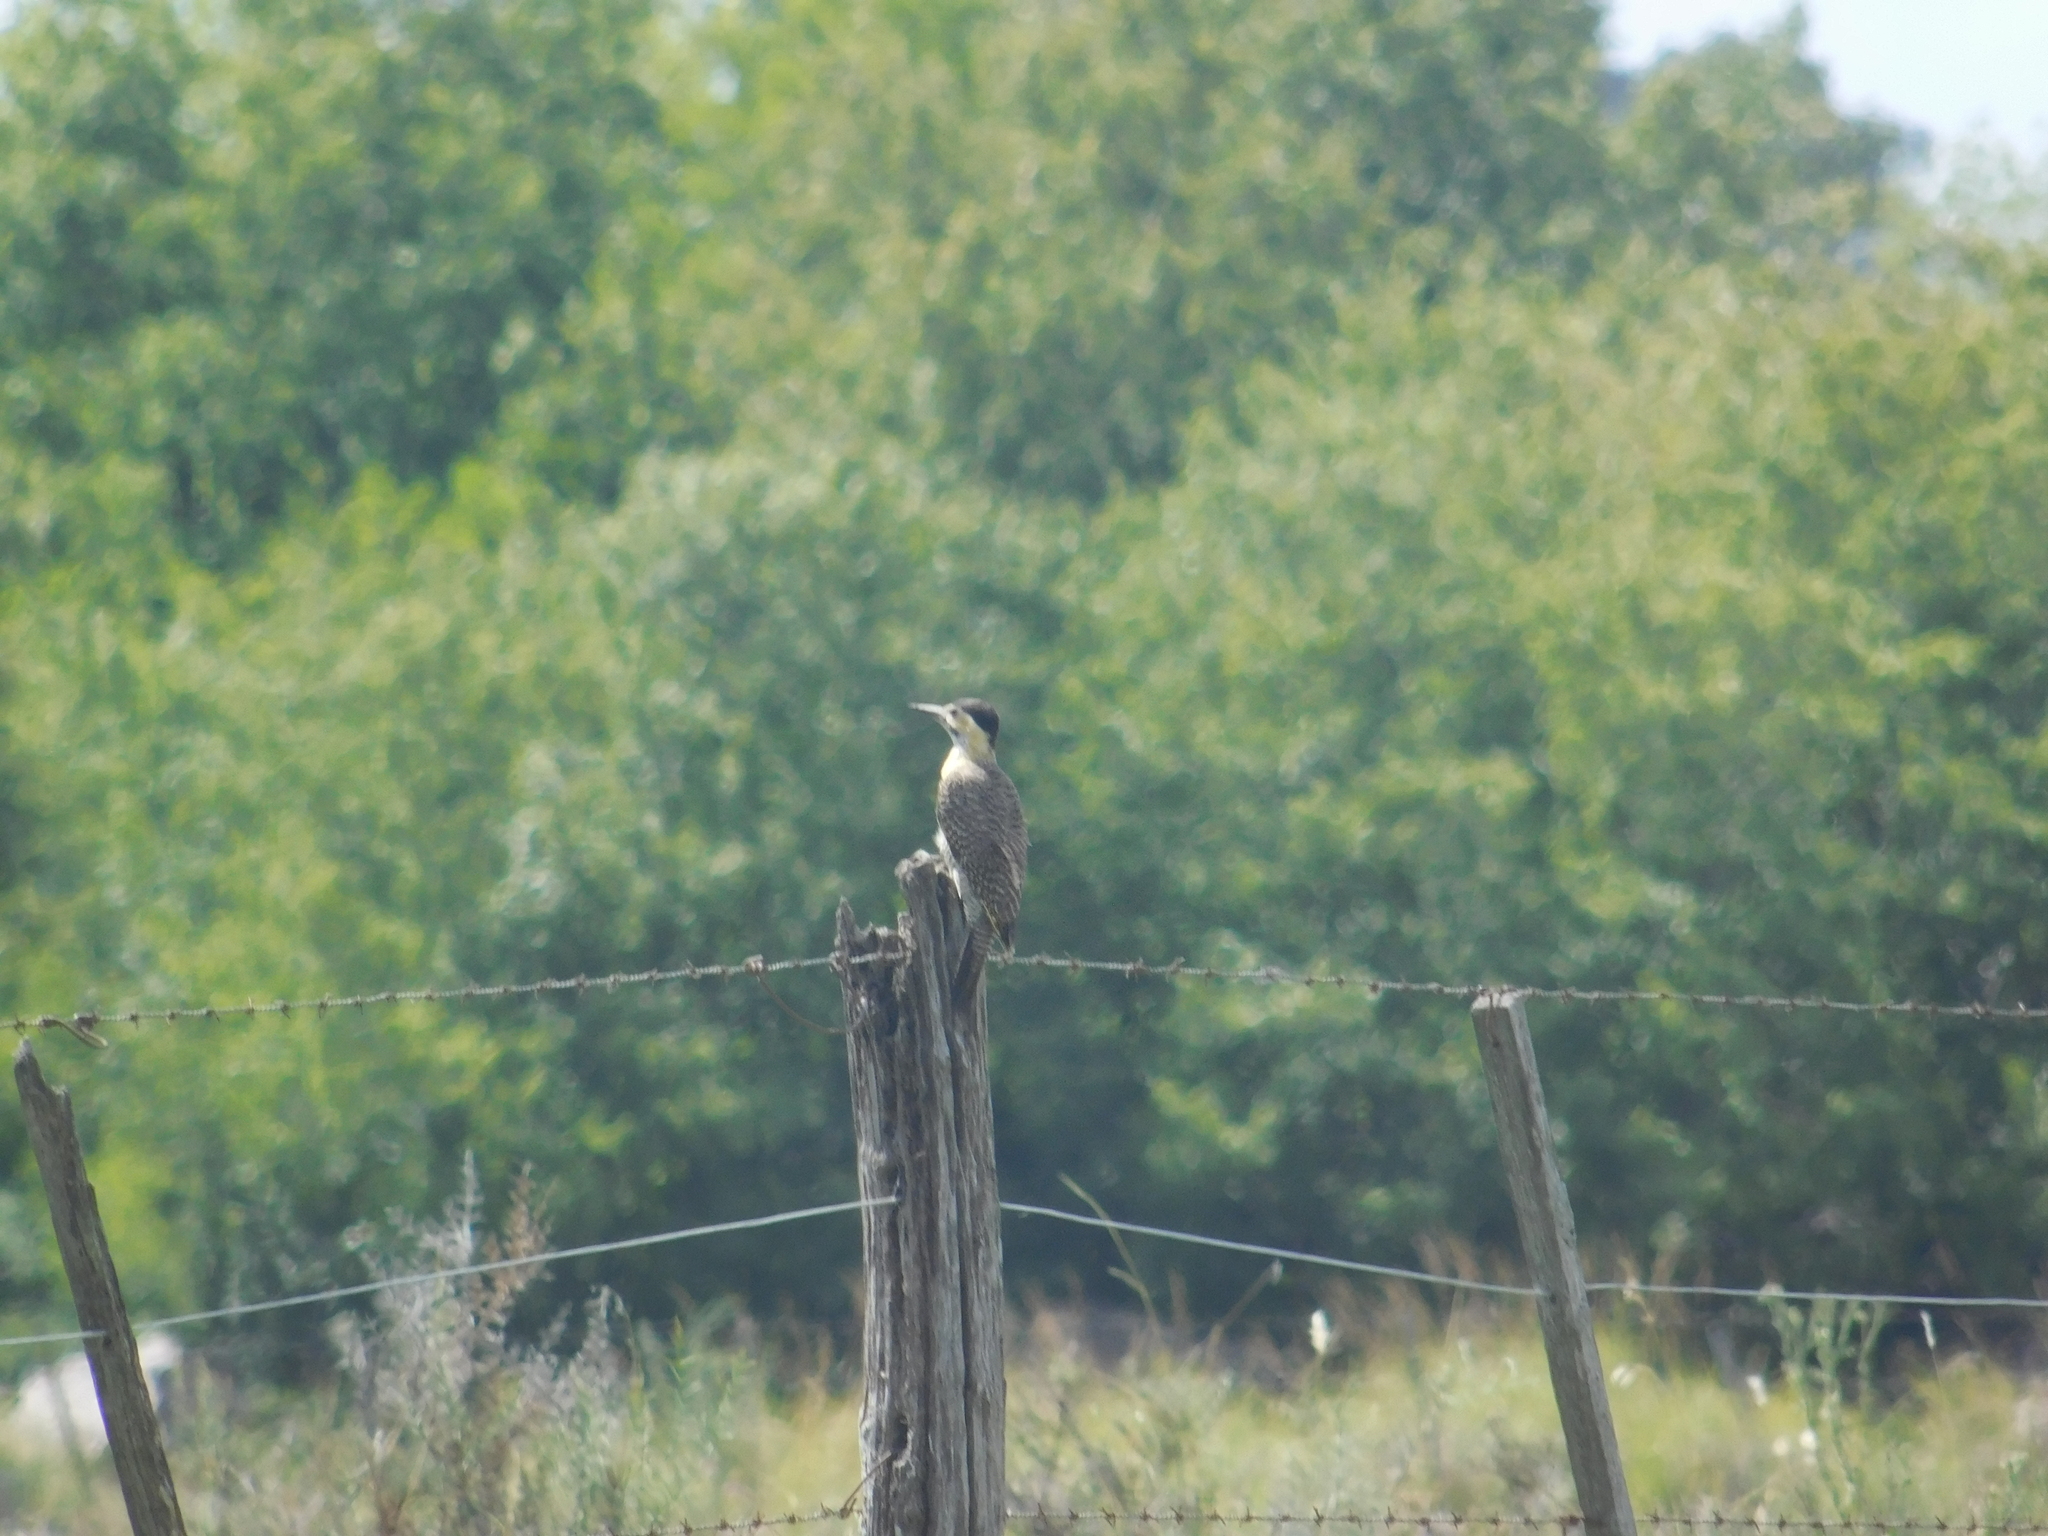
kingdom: Animalia
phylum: Chordata
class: Aves
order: Piciformes
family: Picidae
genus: Colaptes
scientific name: Colaptes campestris
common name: Campo flicker
